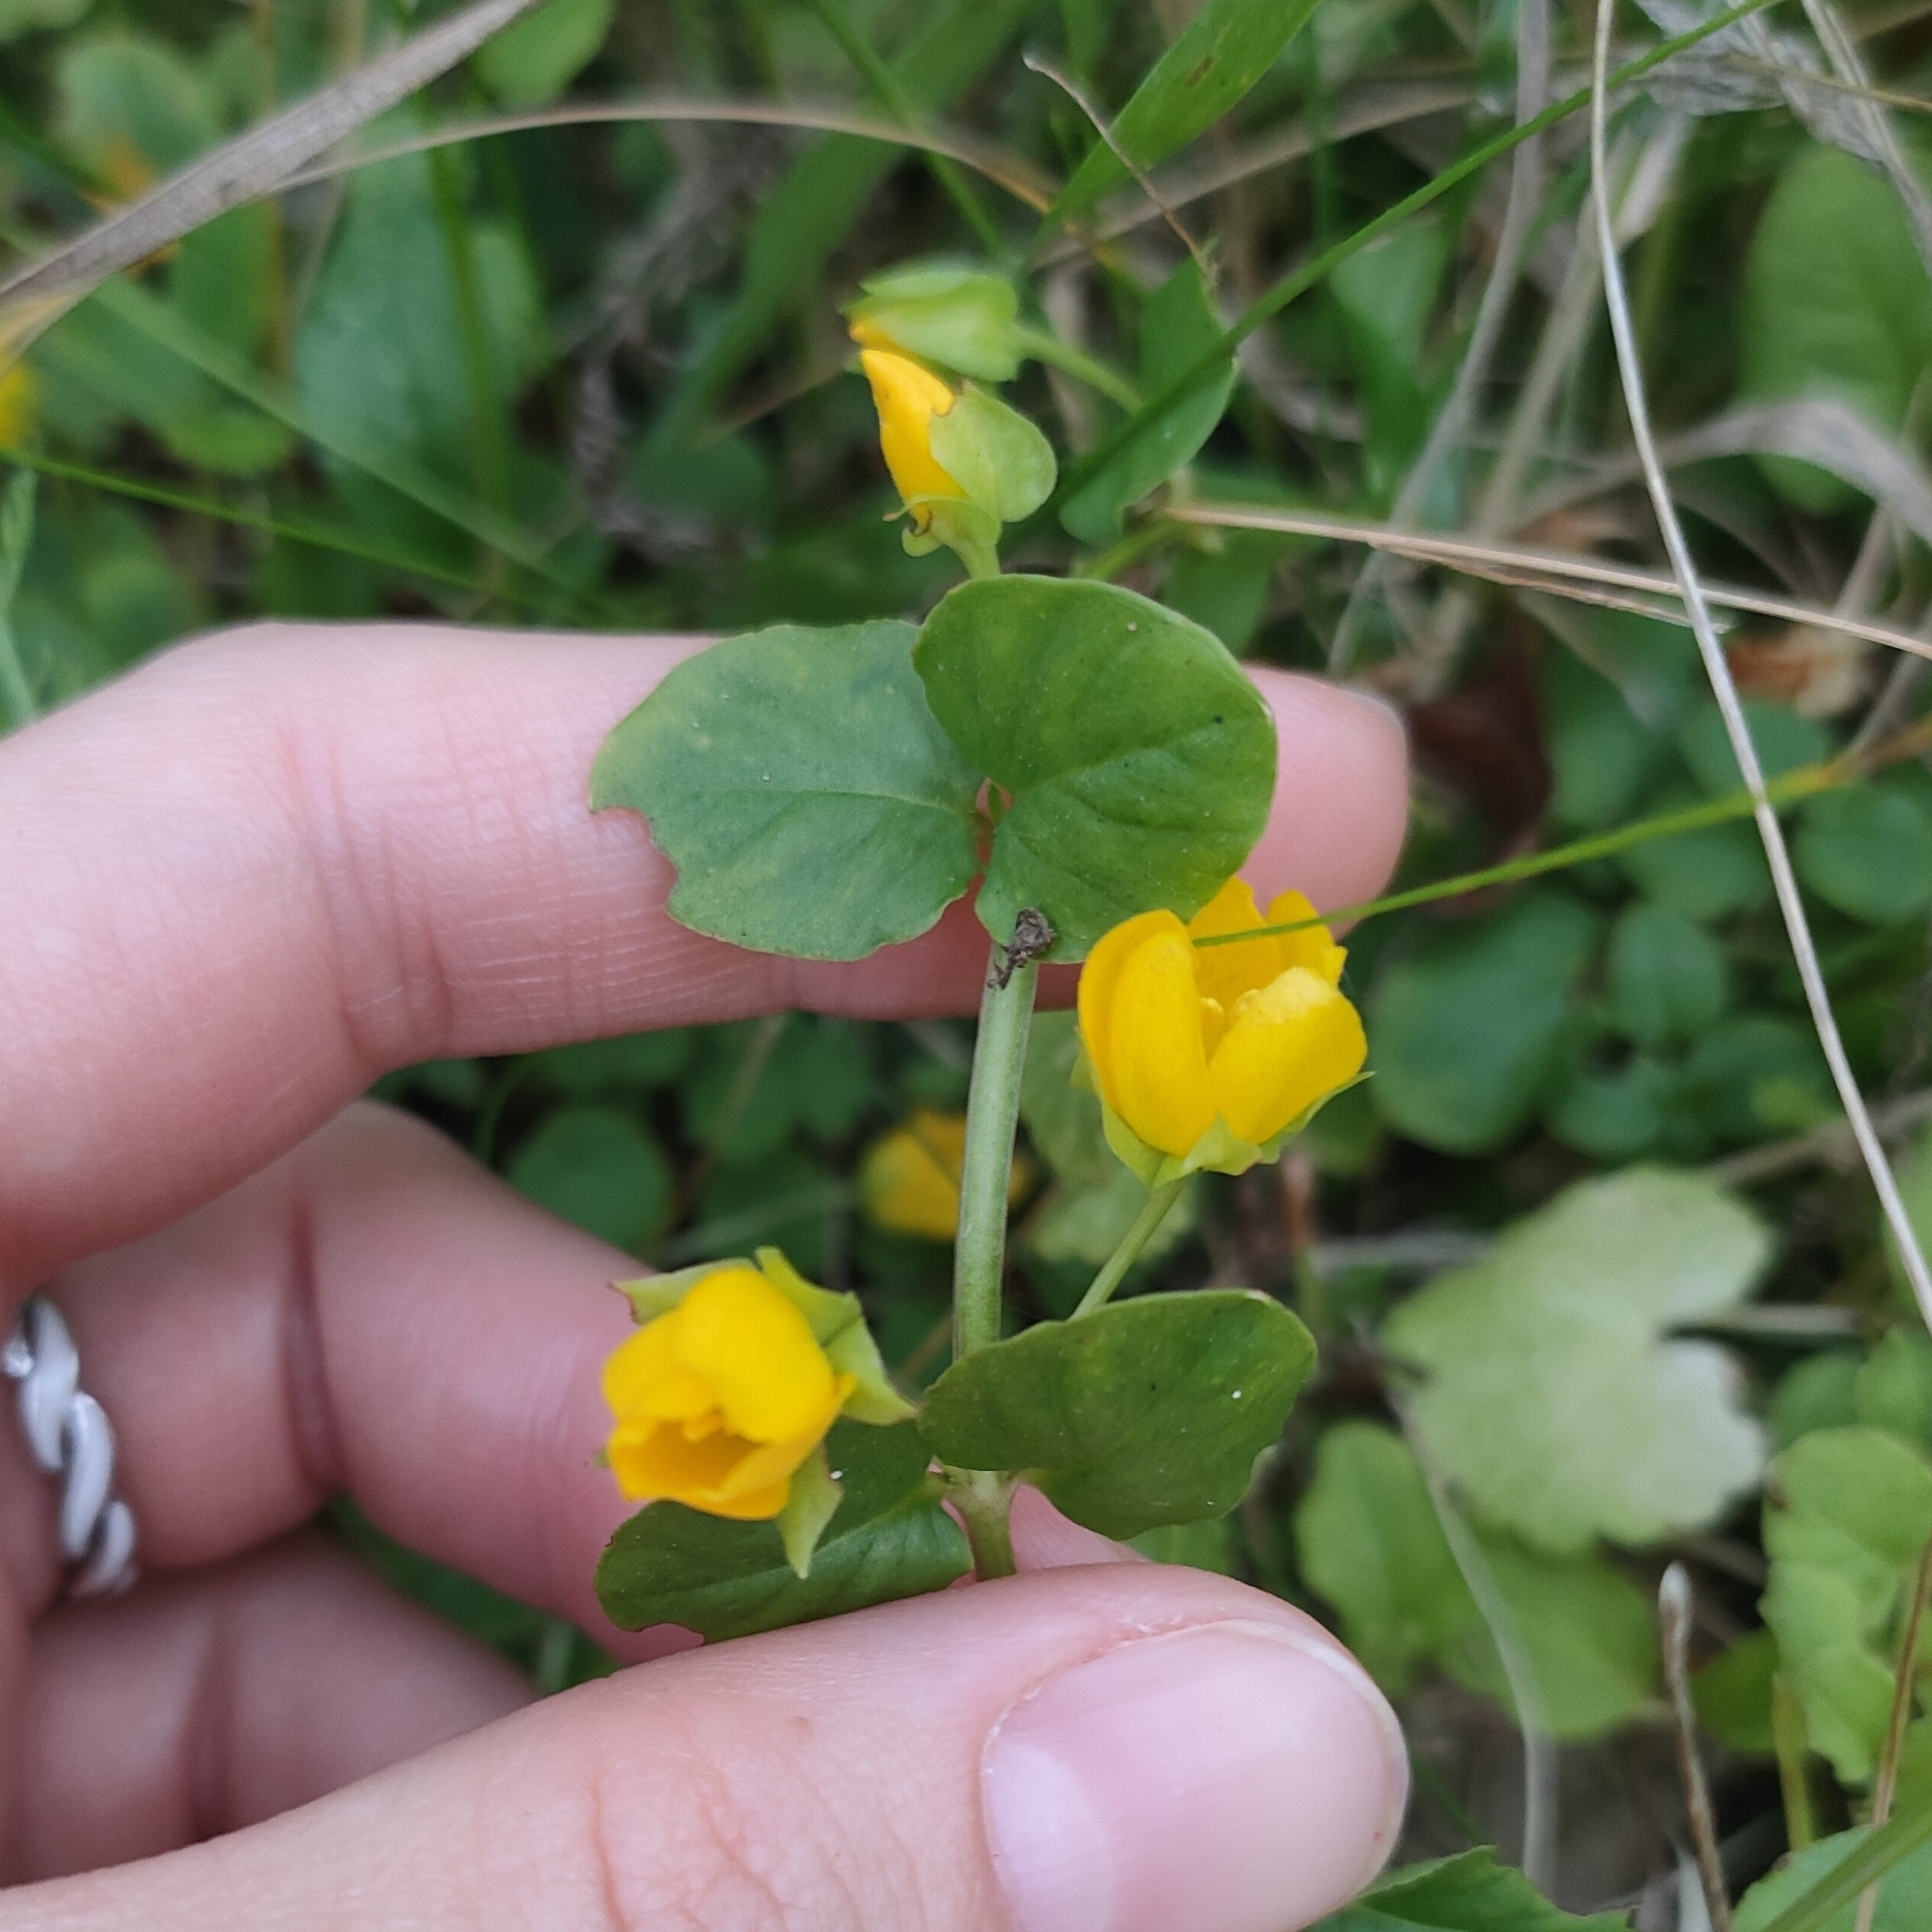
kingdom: Plantae
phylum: Tracheophyta
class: Magnoliopsida
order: Ericales
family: Primulaceae
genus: Lysimachia
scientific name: Lysimachia nummularia
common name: Moneywort
